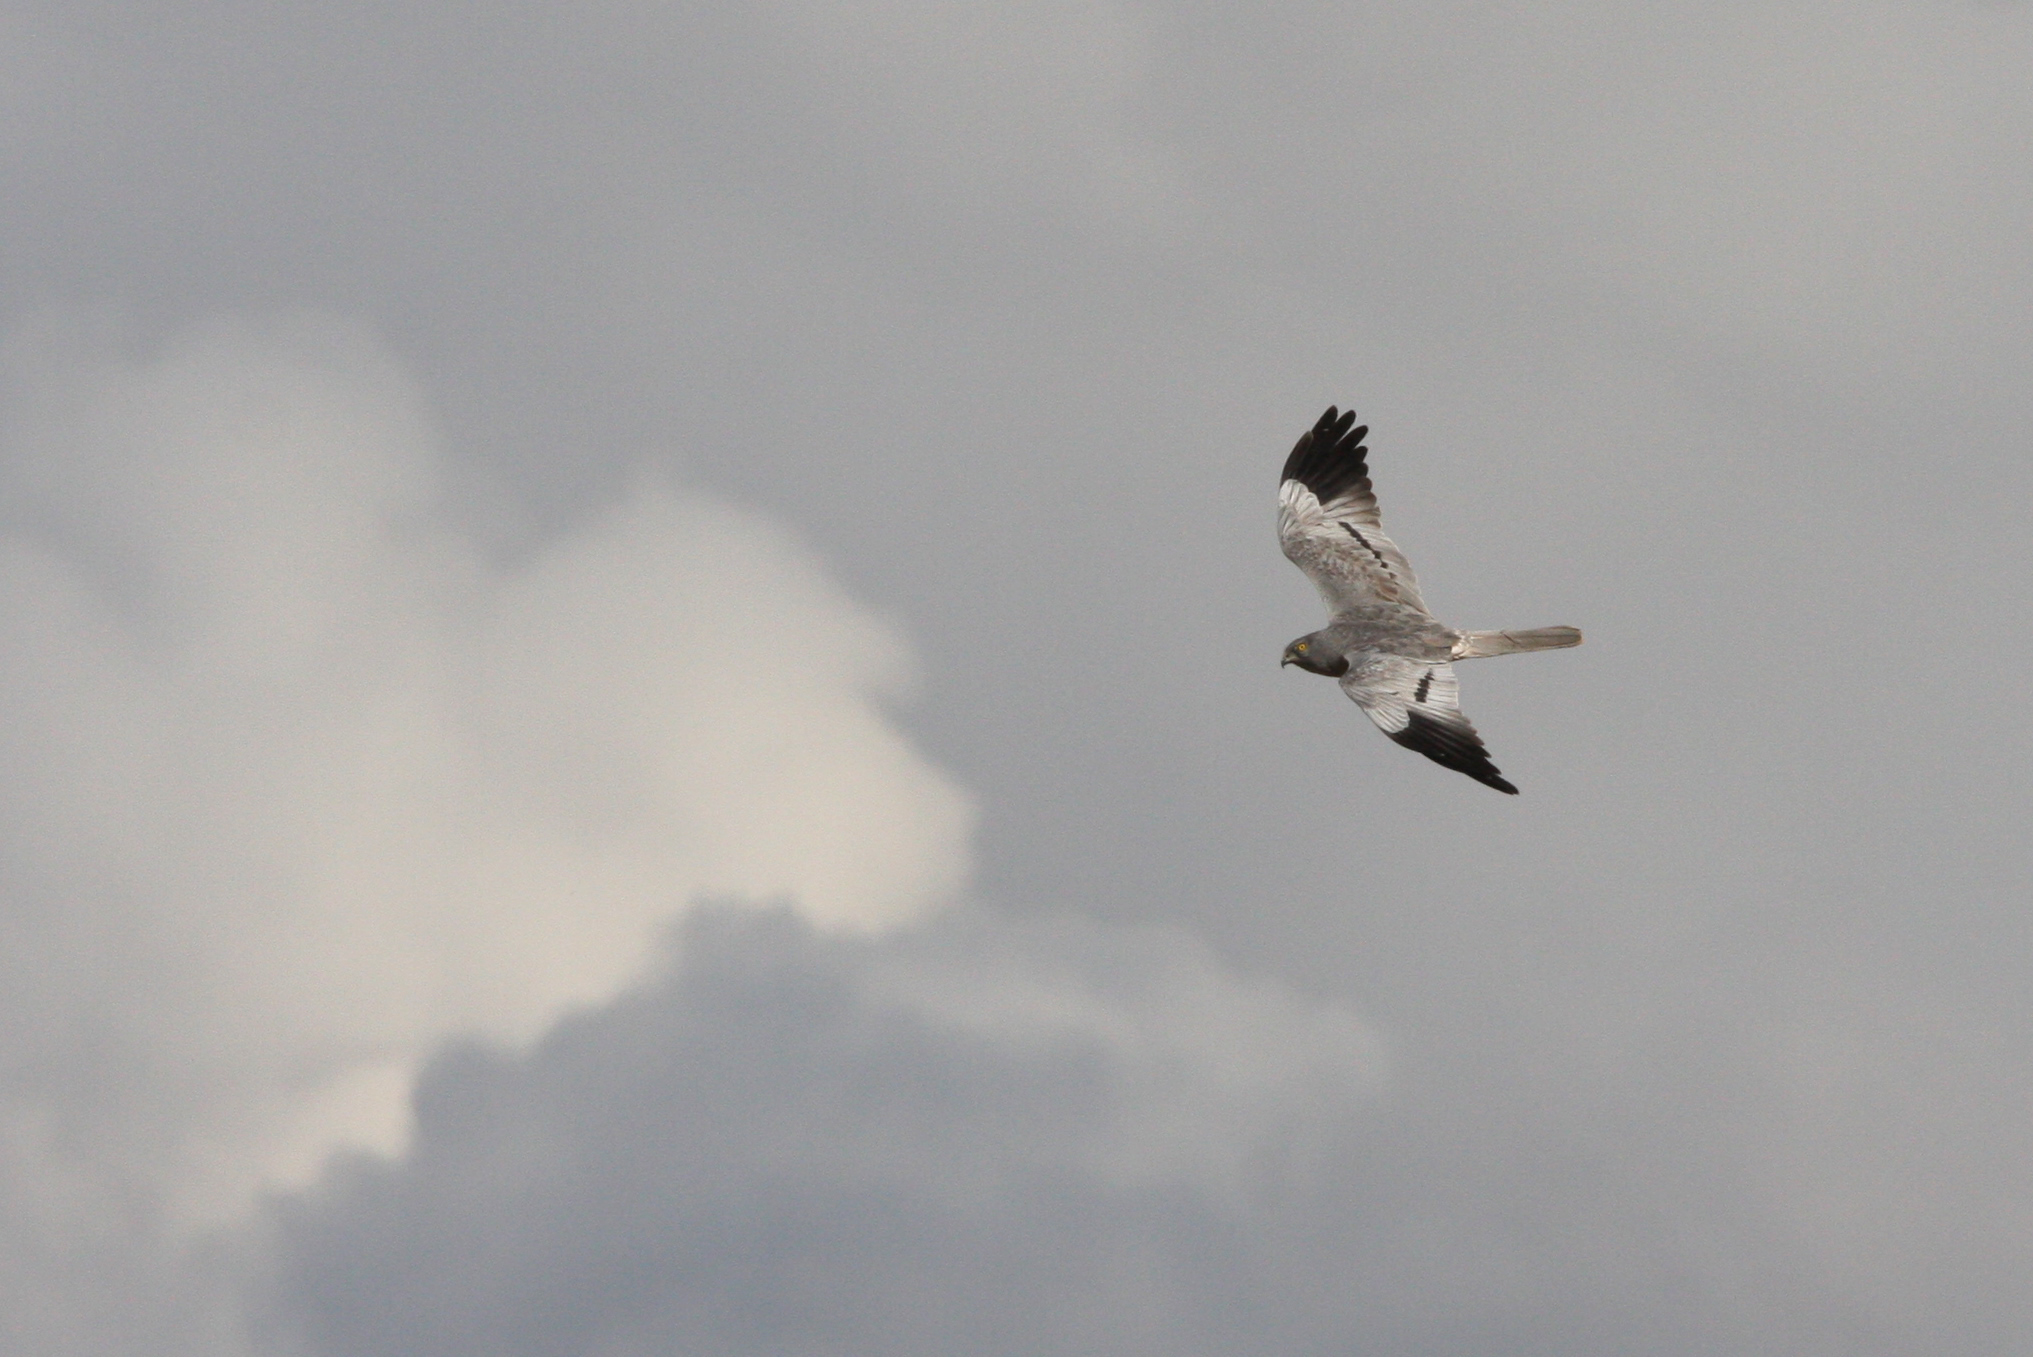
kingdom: Animalia
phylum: Chordata
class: Aves
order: Accipitriformes
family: Accipitridae
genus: Circus
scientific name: Circus pygargus
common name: Montagu's harrier
